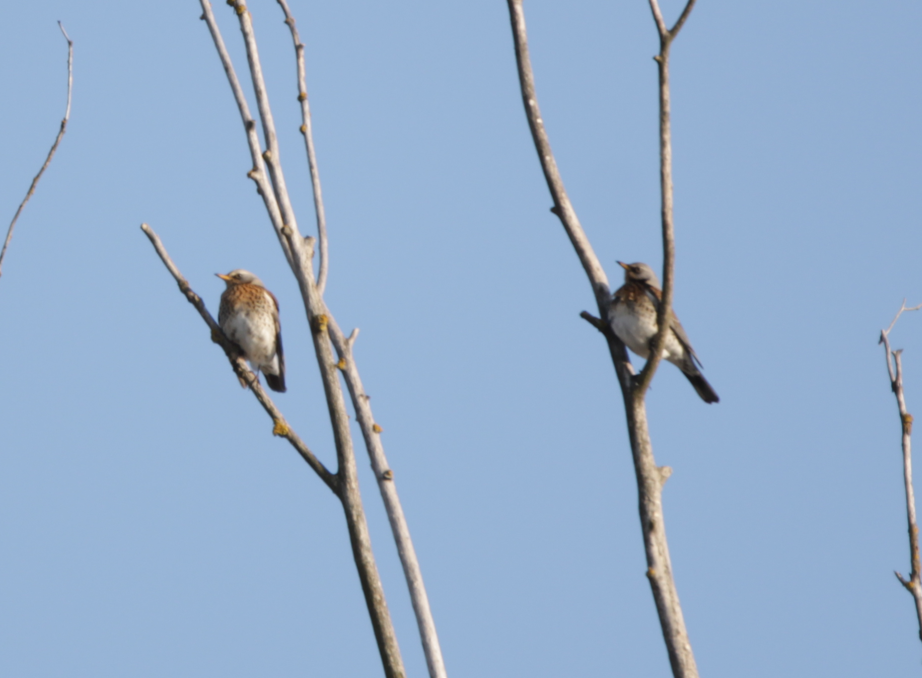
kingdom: Animalia
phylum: Chordata
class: Aves
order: Passeriformes
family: Turdidae
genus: Turdus
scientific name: Turdus pilaris
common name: Fieldfare
